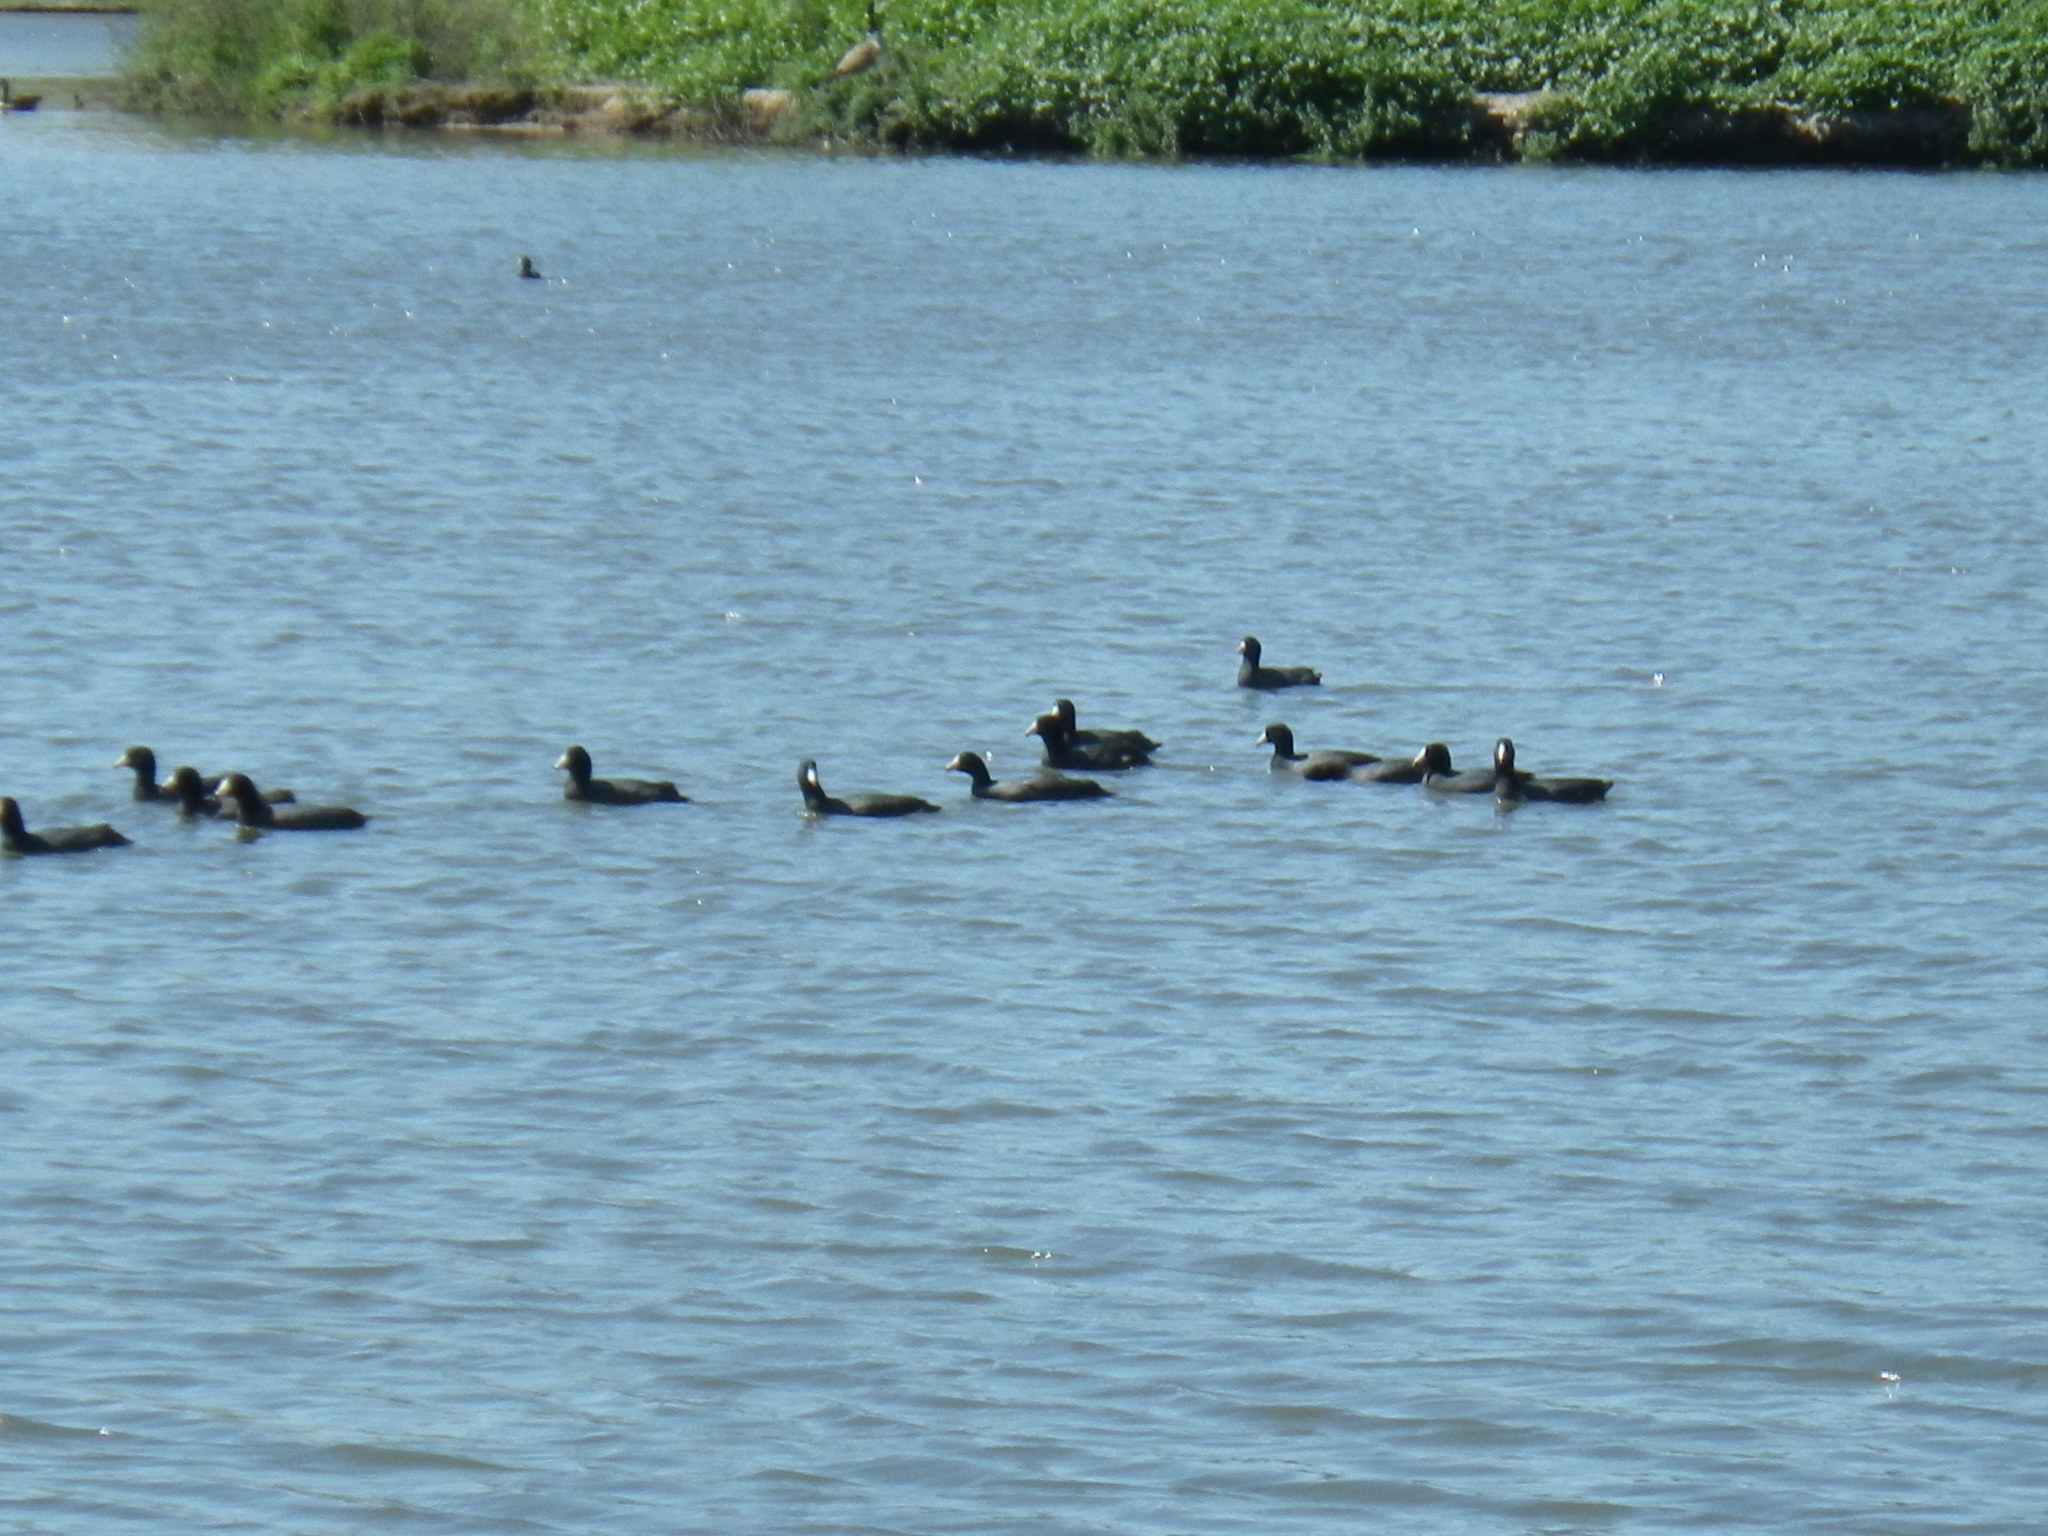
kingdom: Animalia
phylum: Chordata
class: Aves
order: Gruiformes
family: Rallidae
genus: Fulica
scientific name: Fulica americana
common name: American coot
